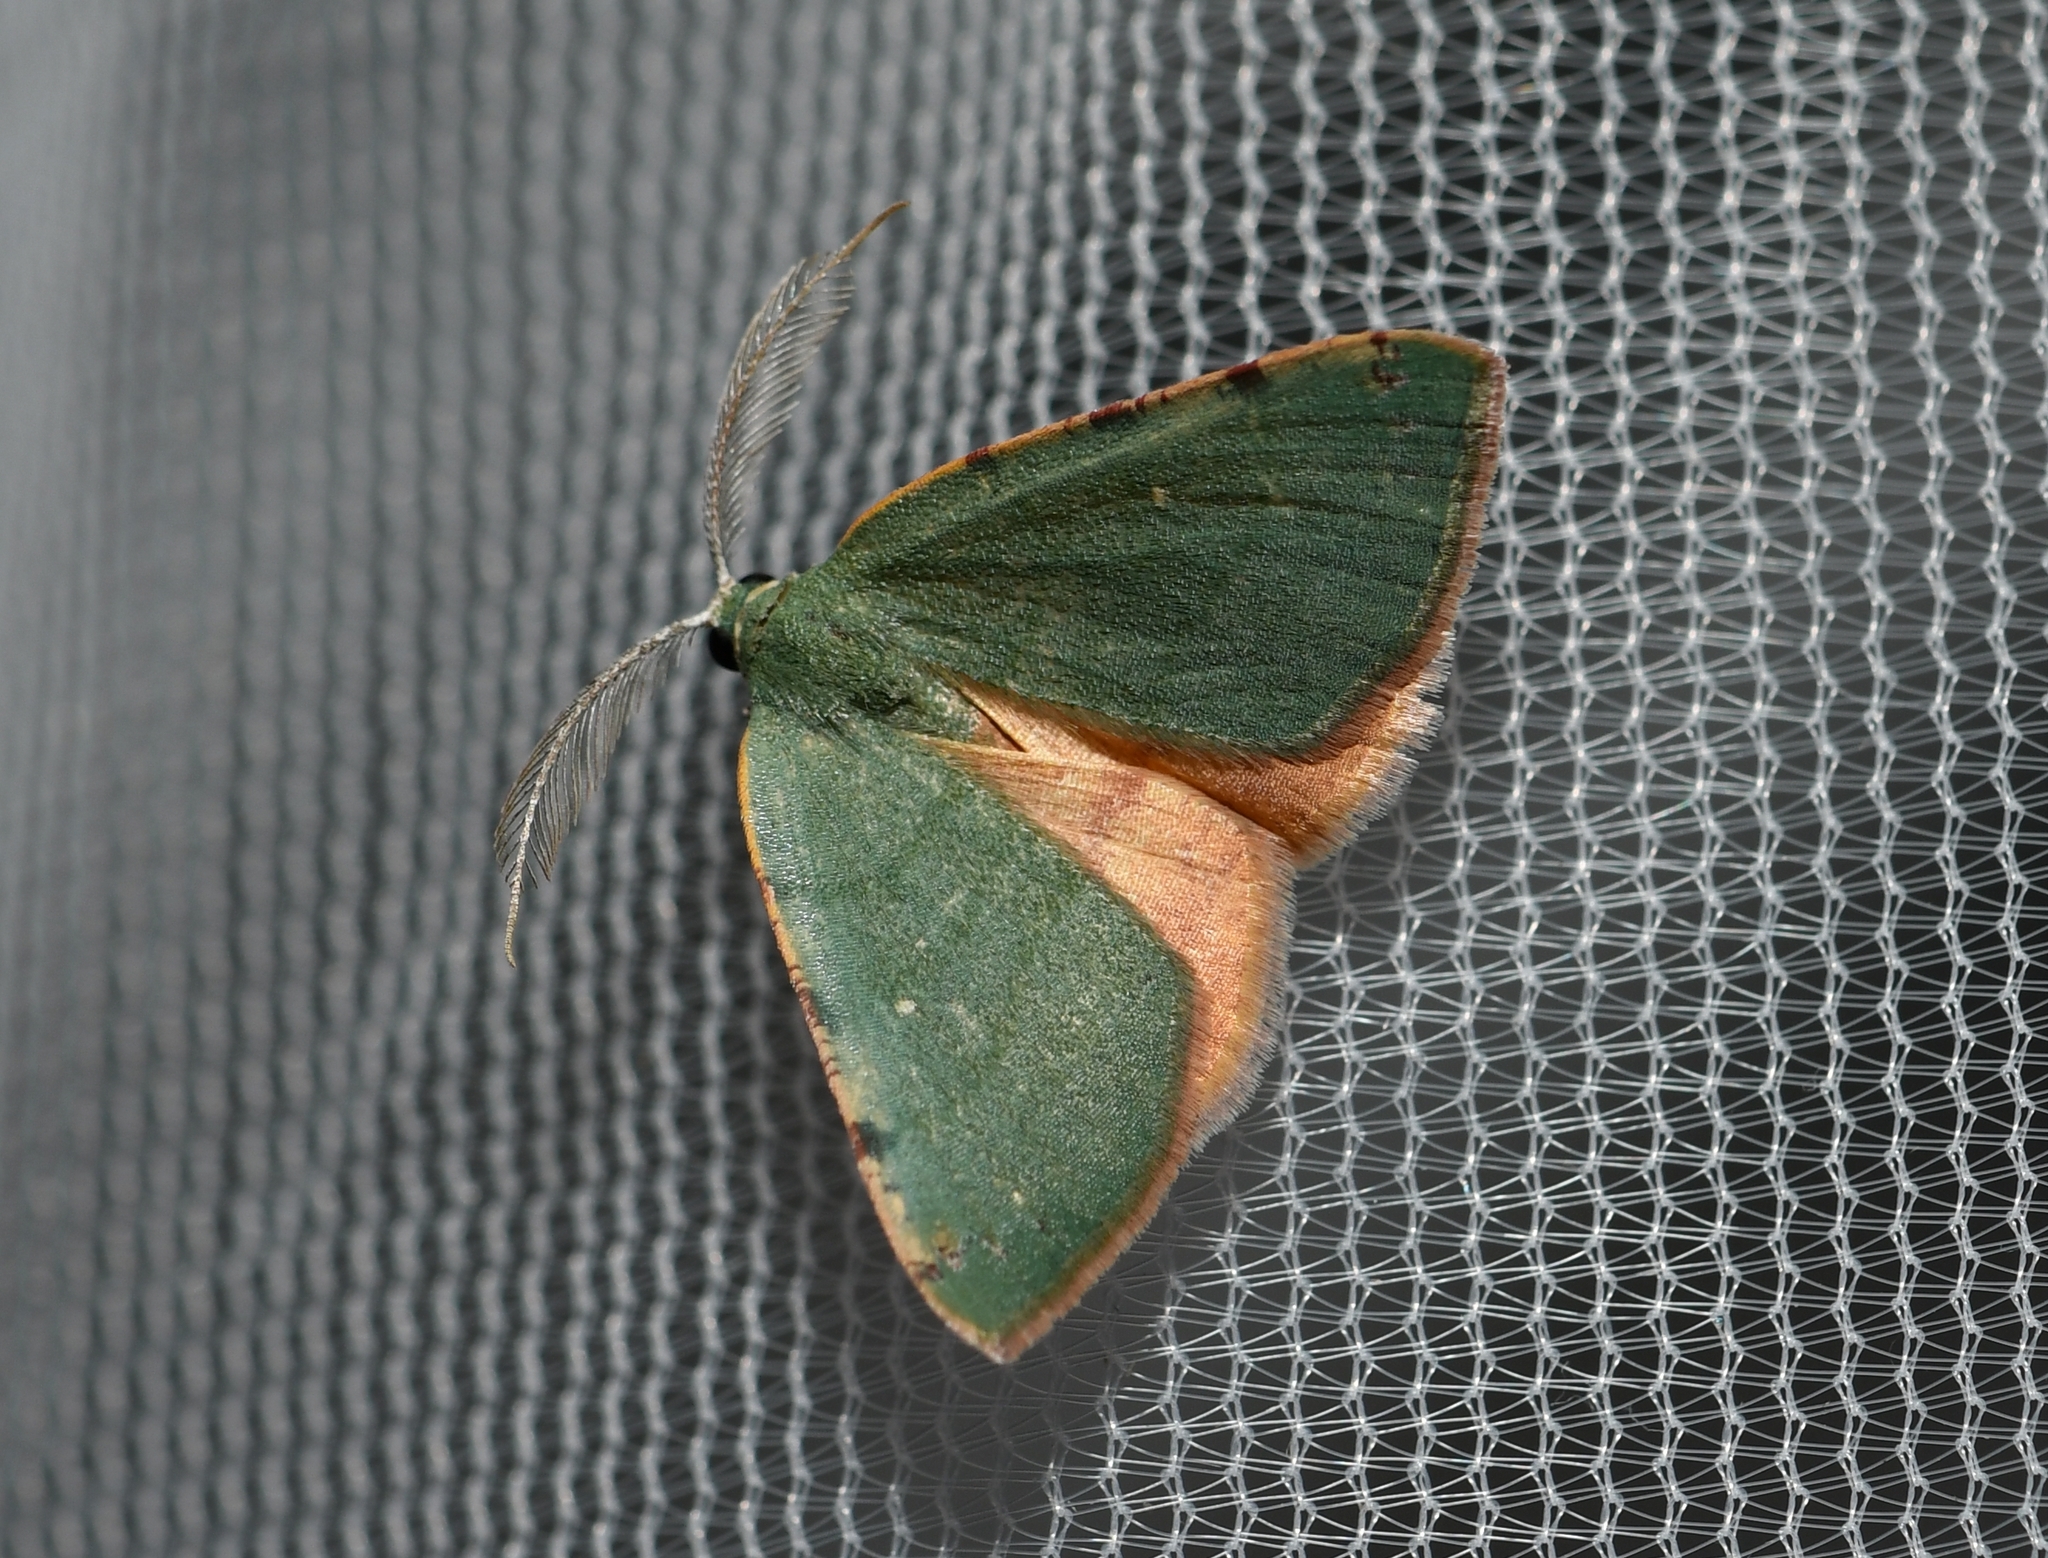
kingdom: Animalia
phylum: Arthropoda
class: Insecta
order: Lepidoptera
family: Geometridae
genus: Chloraspilates
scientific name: Chloraspilates bicoloraria
